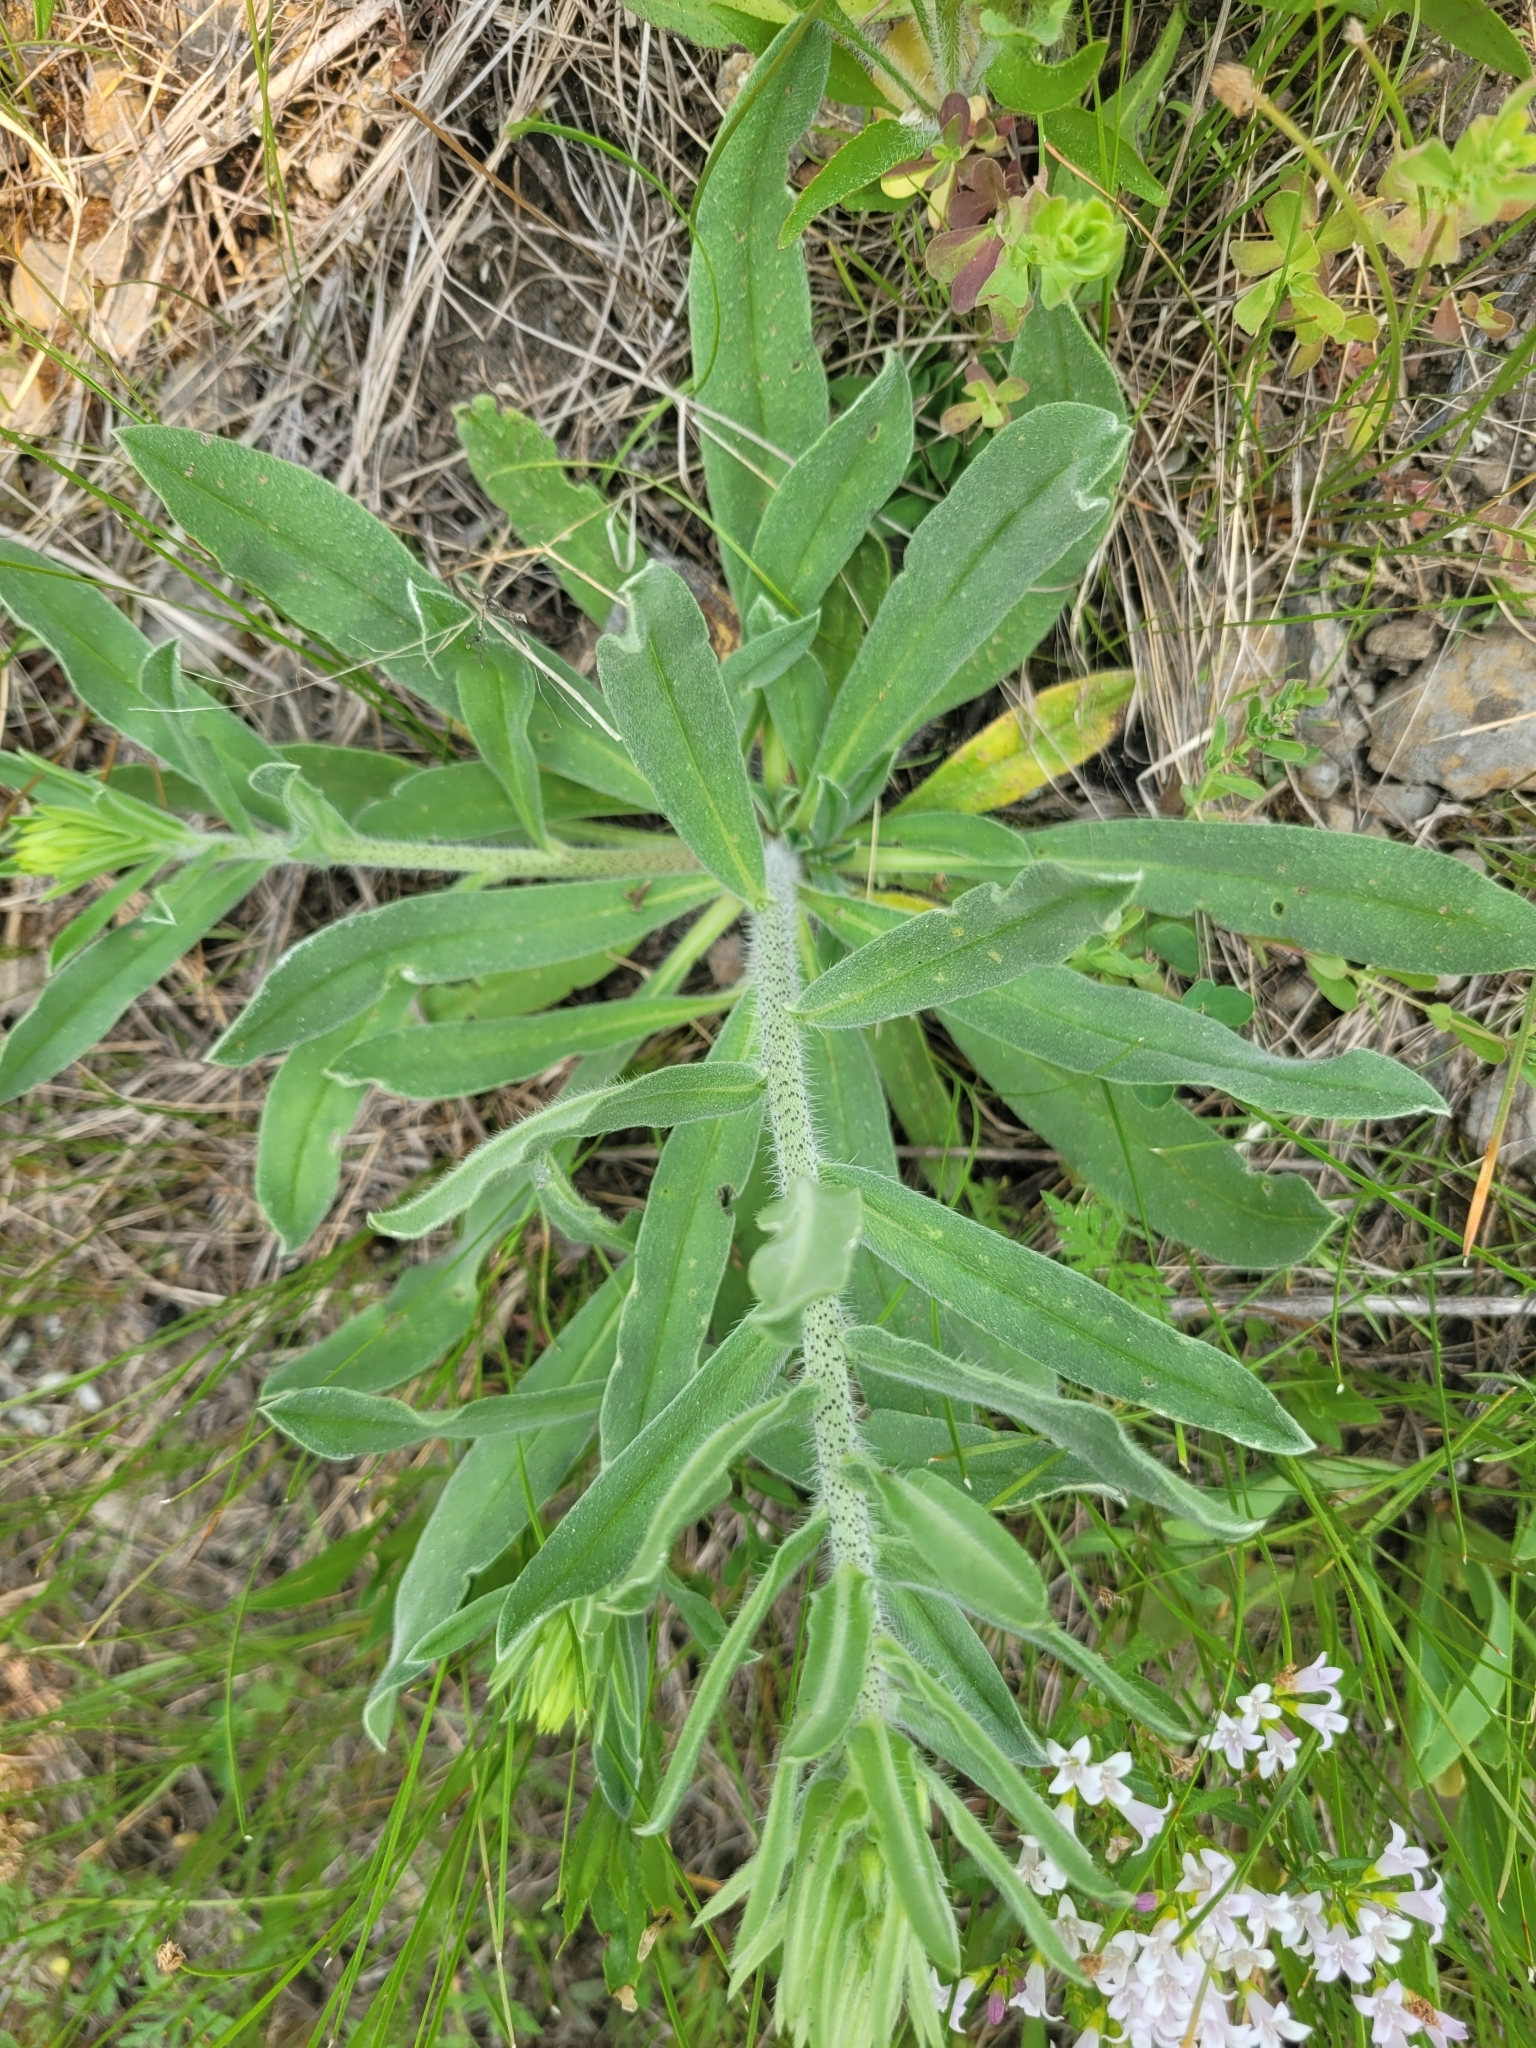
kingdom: Plantae
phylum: Tracheophyta
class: Magnoliopsida
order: Boraginales
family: Boraginaceae
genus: Echium
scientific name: Echium vulgare
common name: Common viper's bugloss
